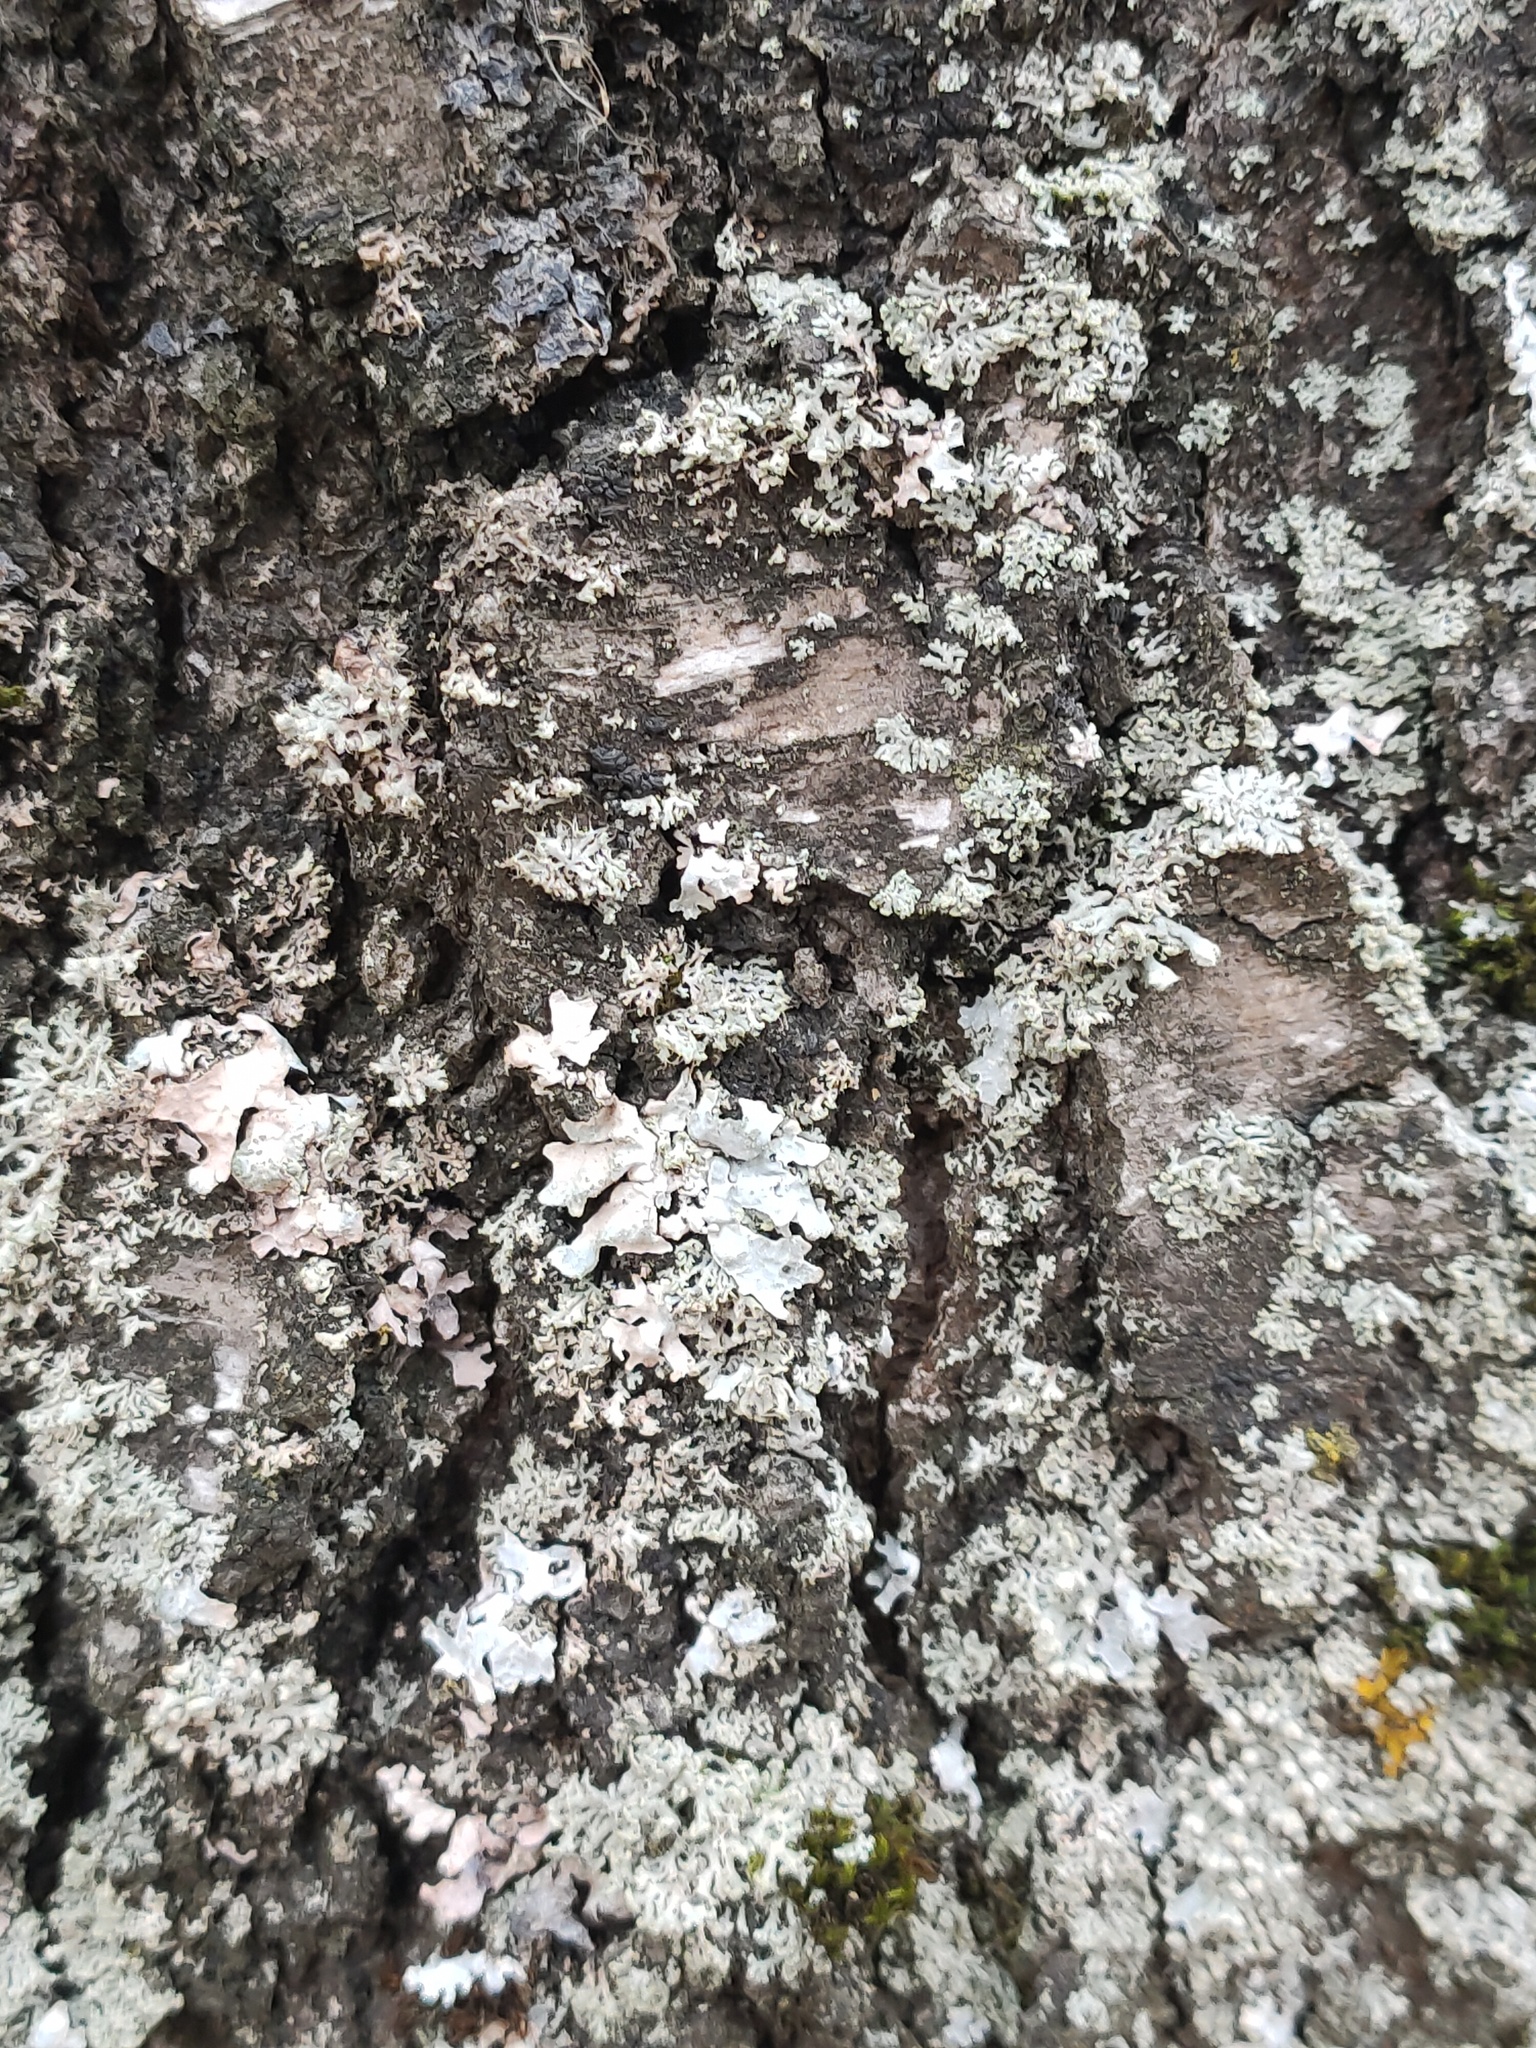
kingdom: Fungi
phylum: Ascomycota
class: Lecanoromycetes
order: Lecanorales
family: Parmeliaceae
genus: Parmelia
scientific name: Parmelia sulcata
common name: Netted shield lichen
